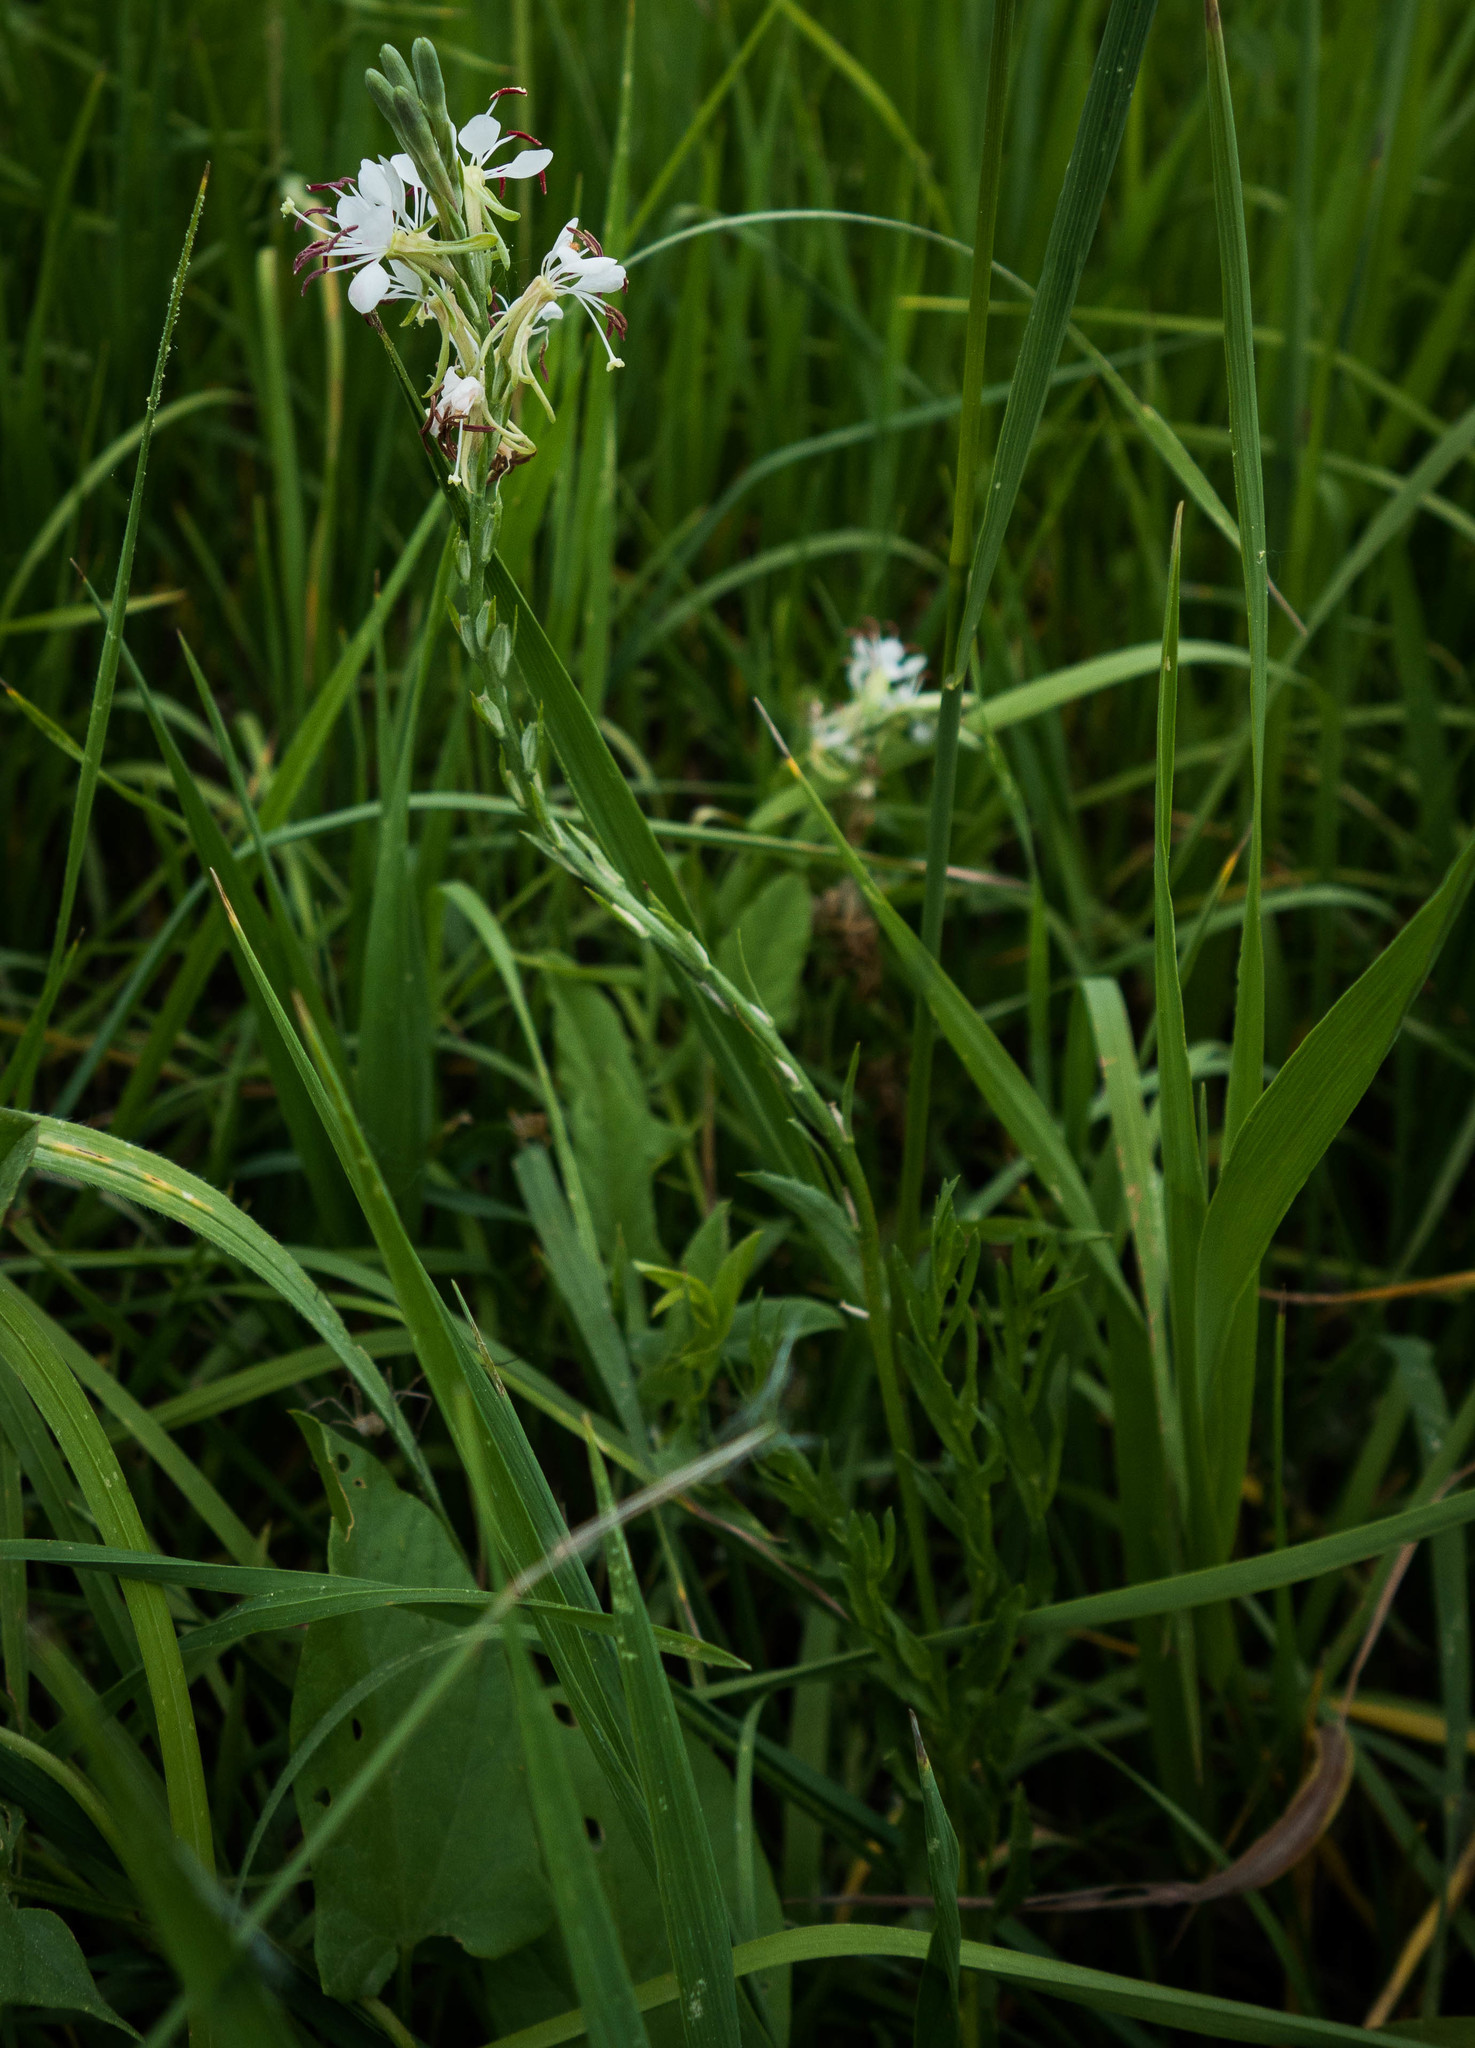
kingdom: Plantae
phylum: Tracheophyta
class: Magnoliopsida
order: Myrtales
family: Onagraceae
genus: Oenothera
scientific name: Oenothera suffrutescens
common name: Scarlet beeblossom
